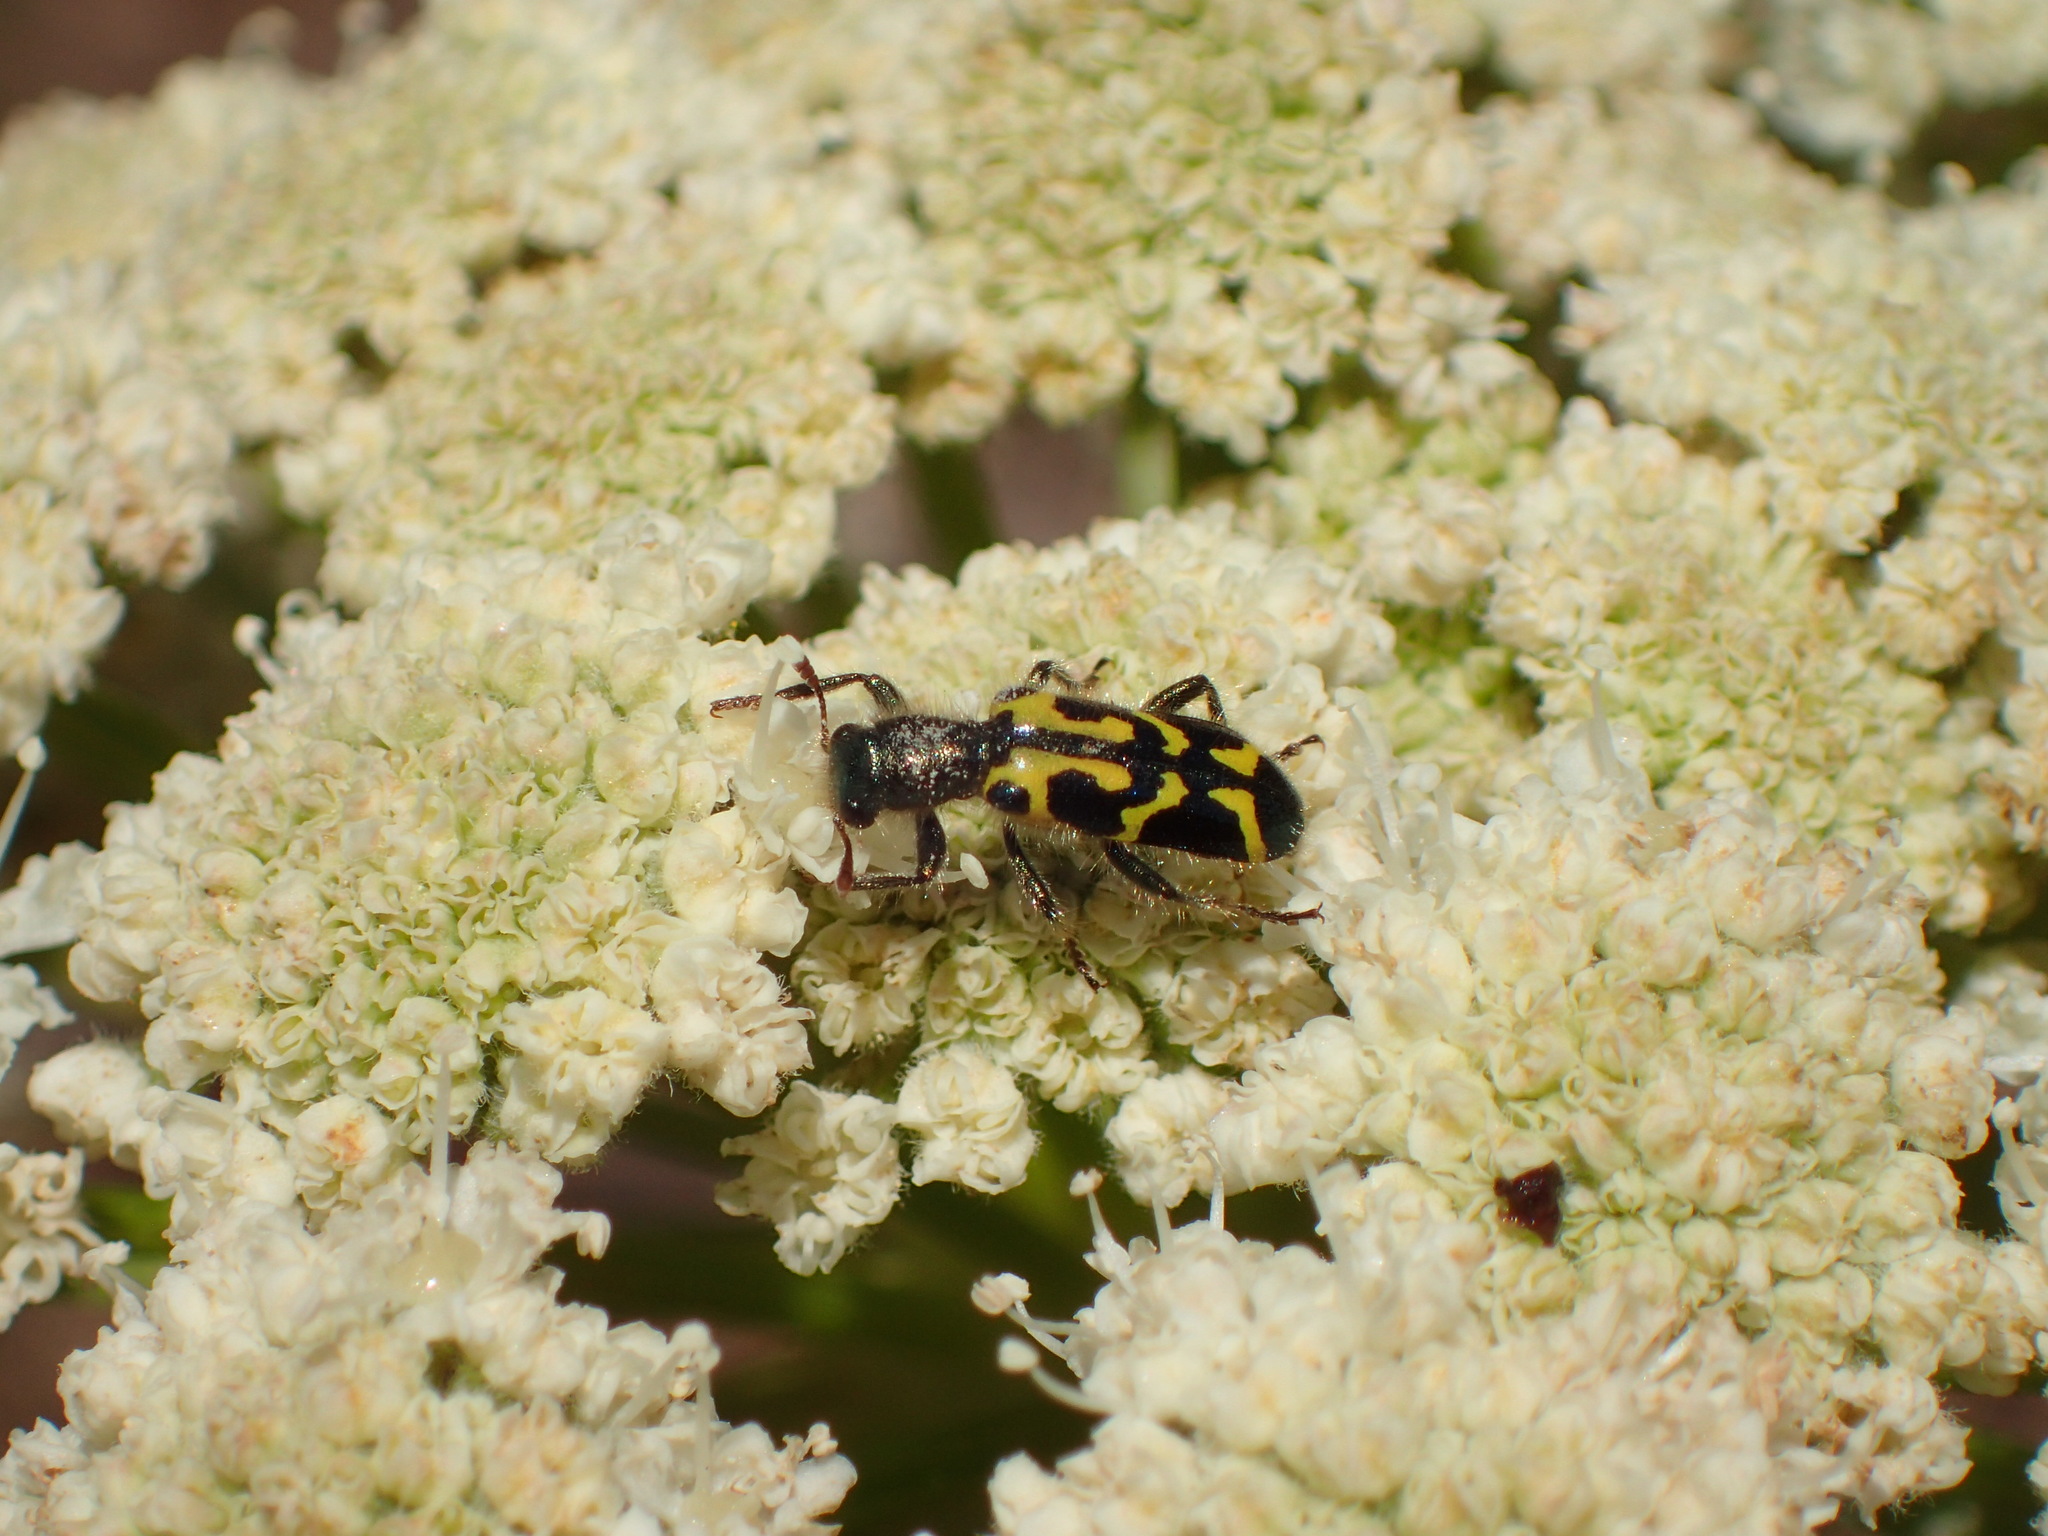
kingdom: Animalia
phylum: Arthropoda
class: Insecta
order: Coleoptera
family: Cleridae
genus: Trichodes
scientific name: Trichodes ornatus
